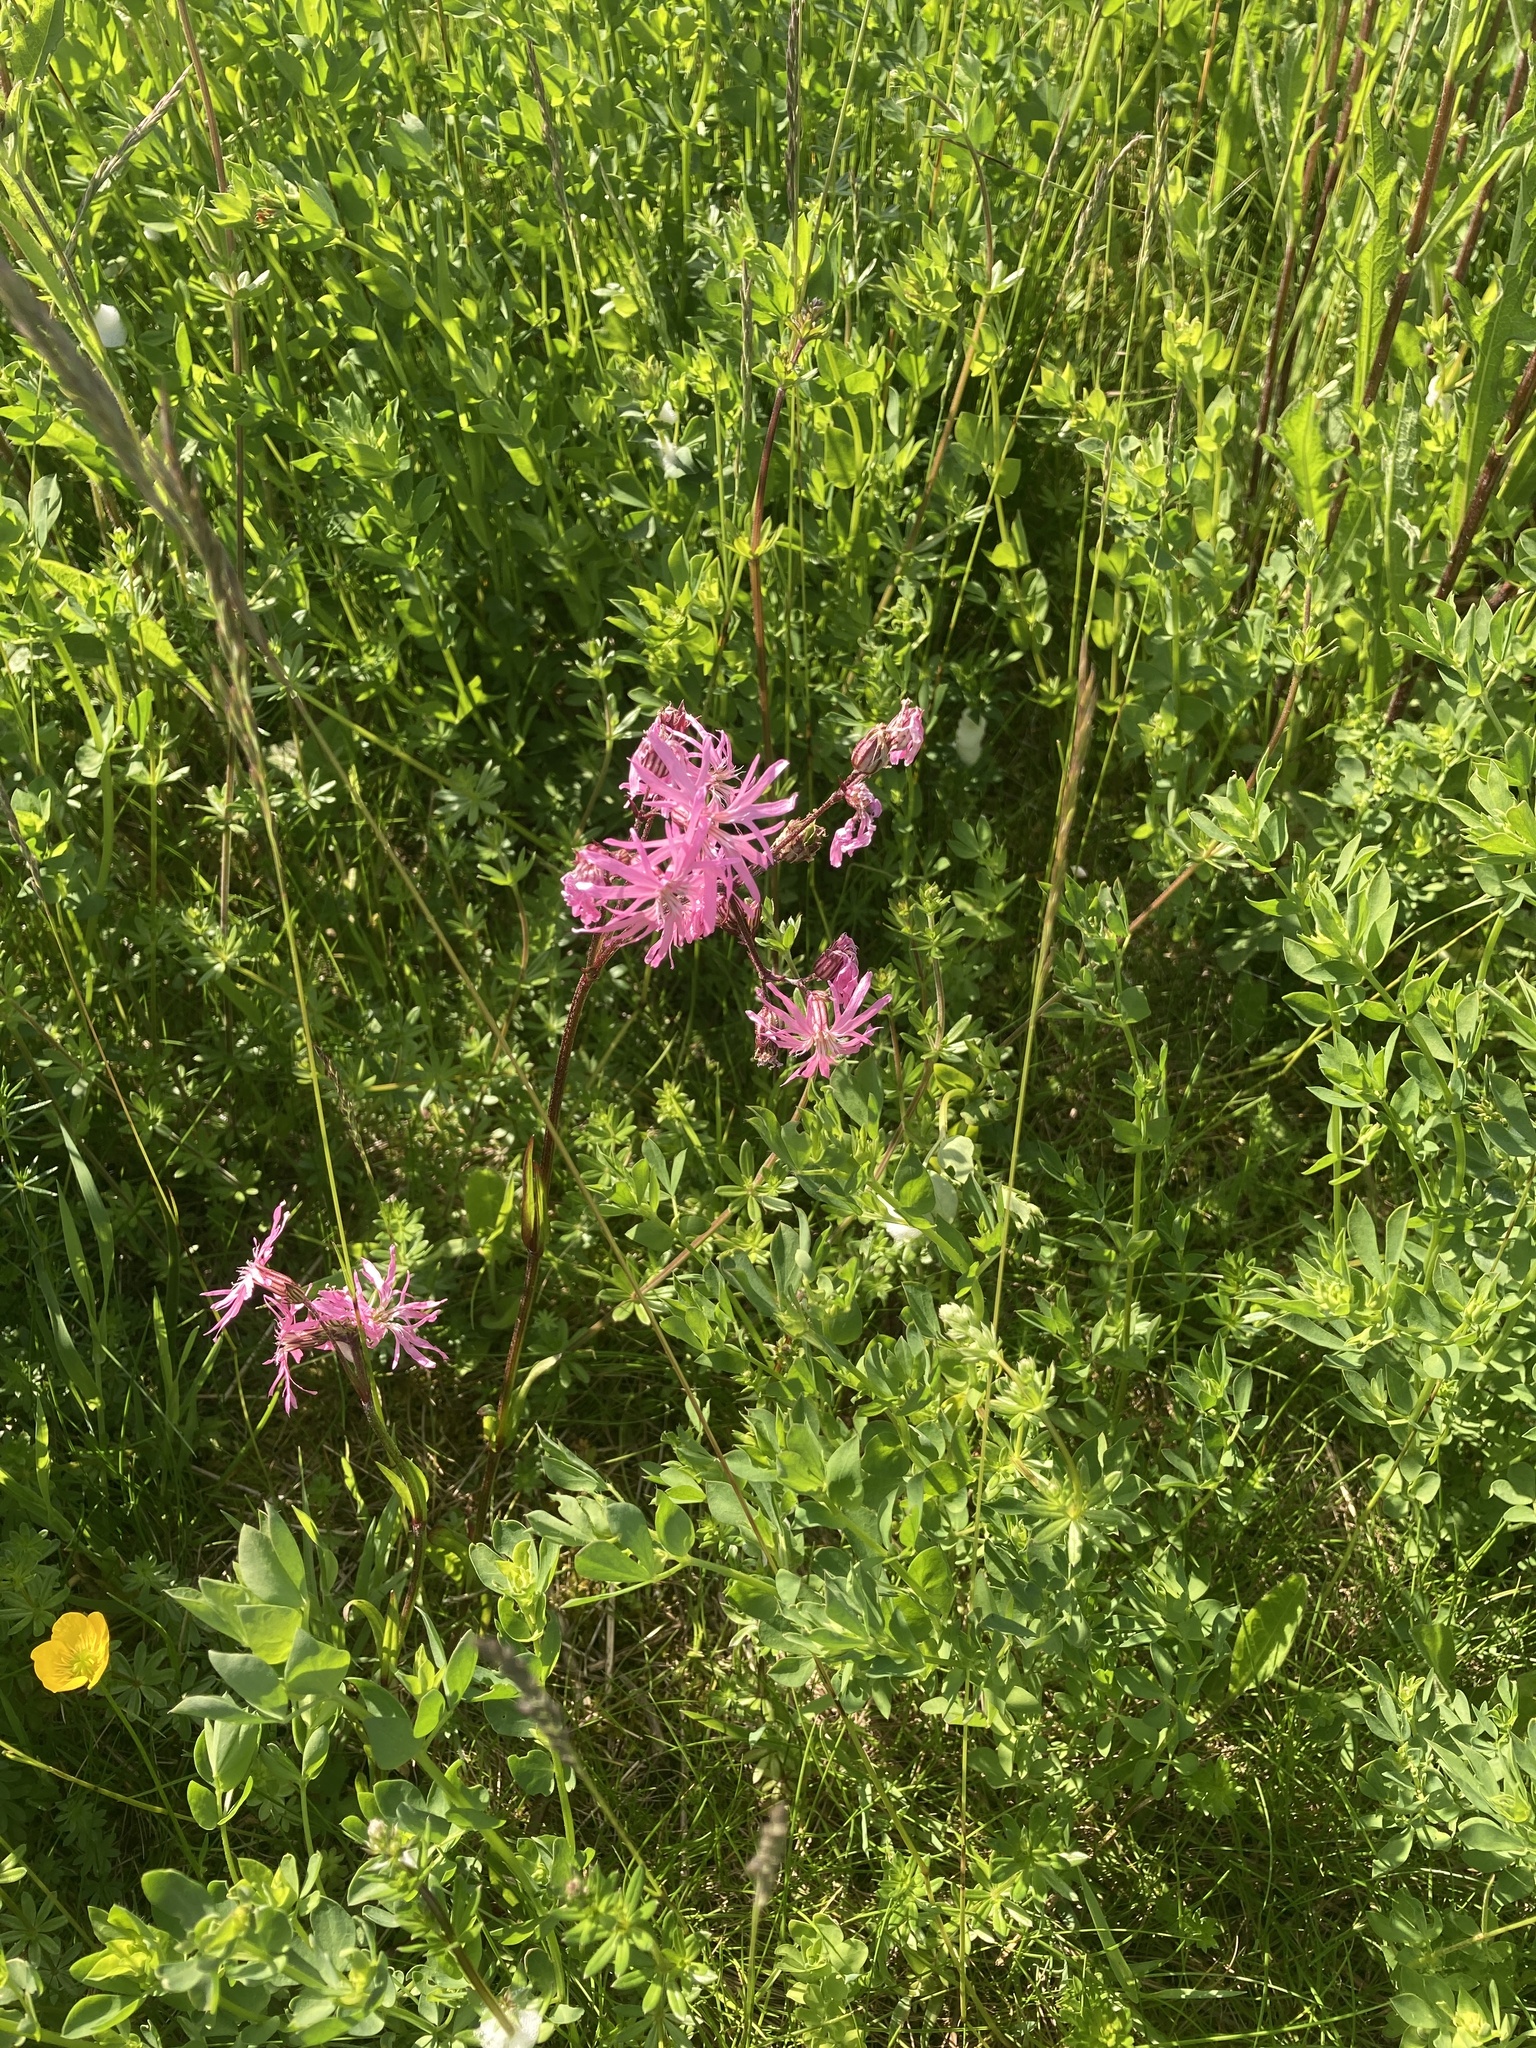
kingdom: Plantae
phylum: Tracheophyta
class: Magnoliopsida
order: Caryophyllales
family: Caryophyllaceae
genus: Silene
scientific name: Silene flos-cuculi
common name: Ragged-robin
